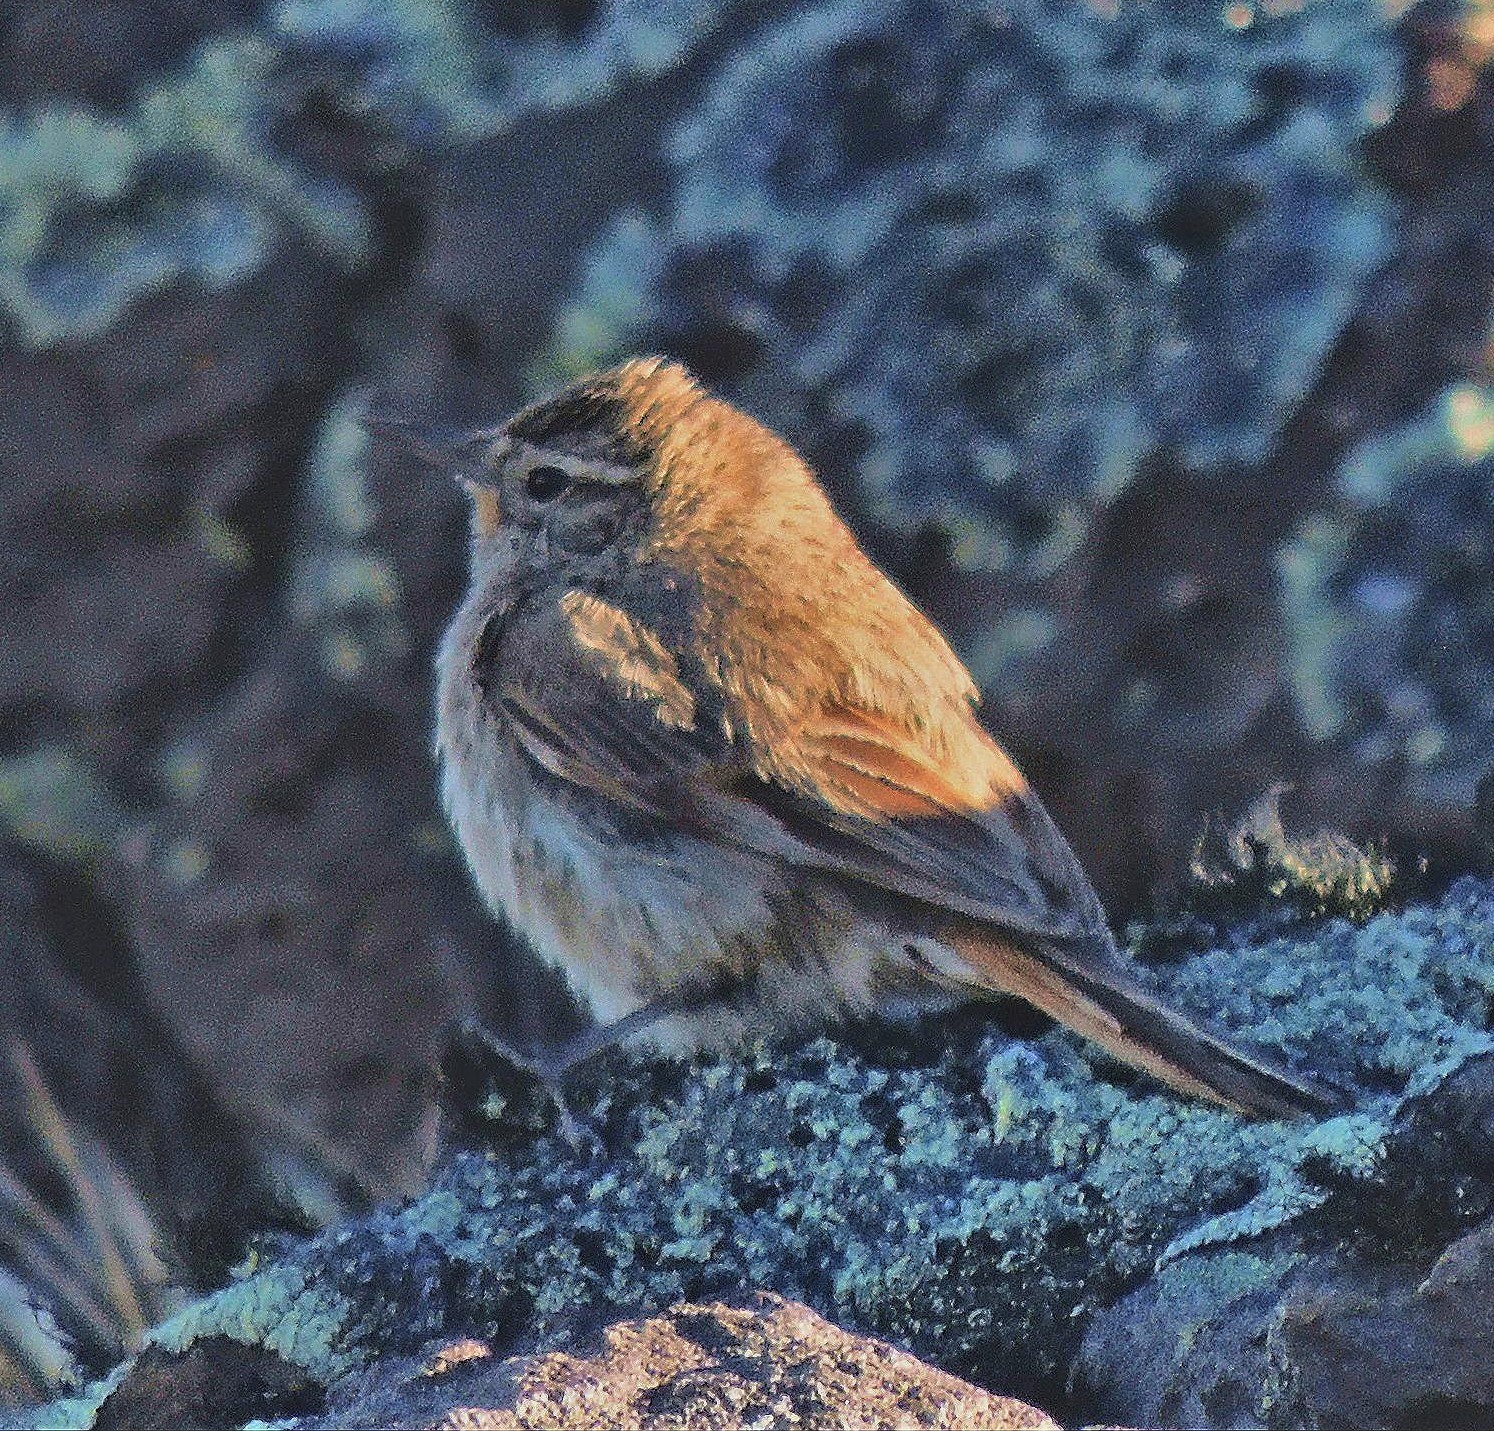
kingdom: Animalia
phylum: Chordata
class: Aves
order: Passeriformes
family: Furnariidae
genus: Asthenes
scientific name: Asthenes modesta
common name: Cordilleran canastero
